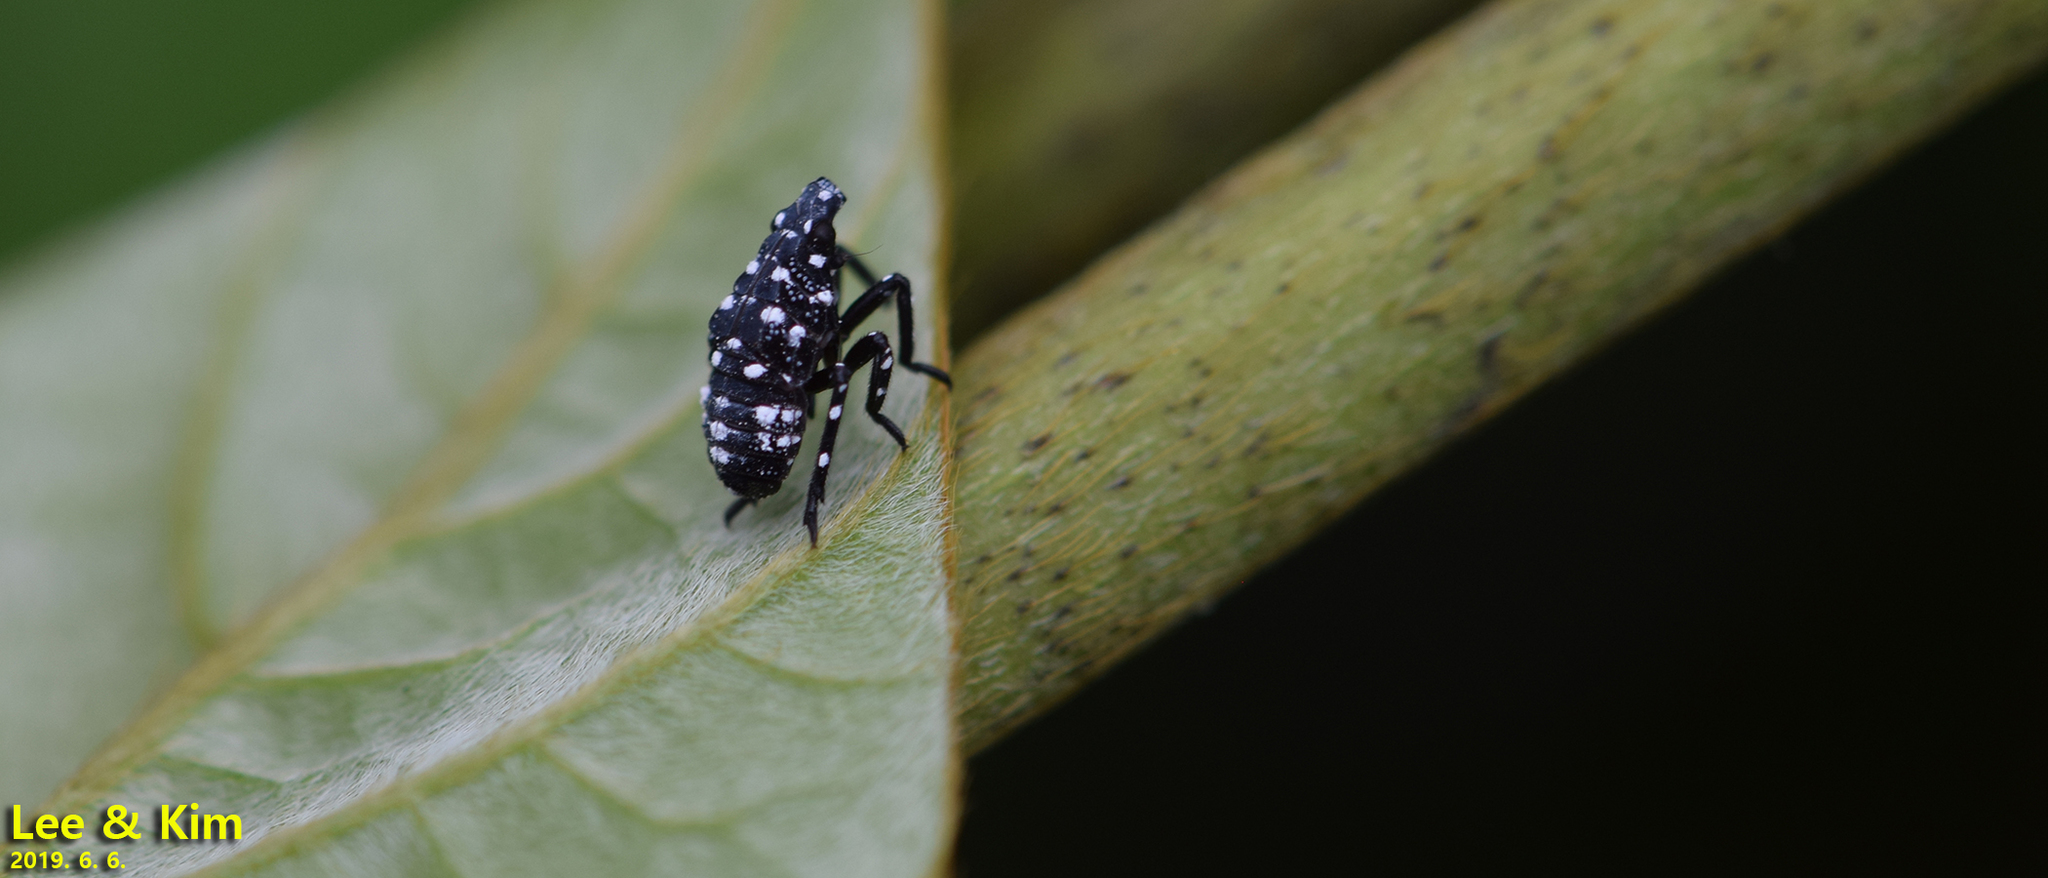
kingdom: Animalia
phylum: Arthropoda
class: Insecta
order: Hemiptera
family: Fulgoridae
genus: Lycorma
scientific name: Lycorma delicatula
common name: Spotted lanternfly
